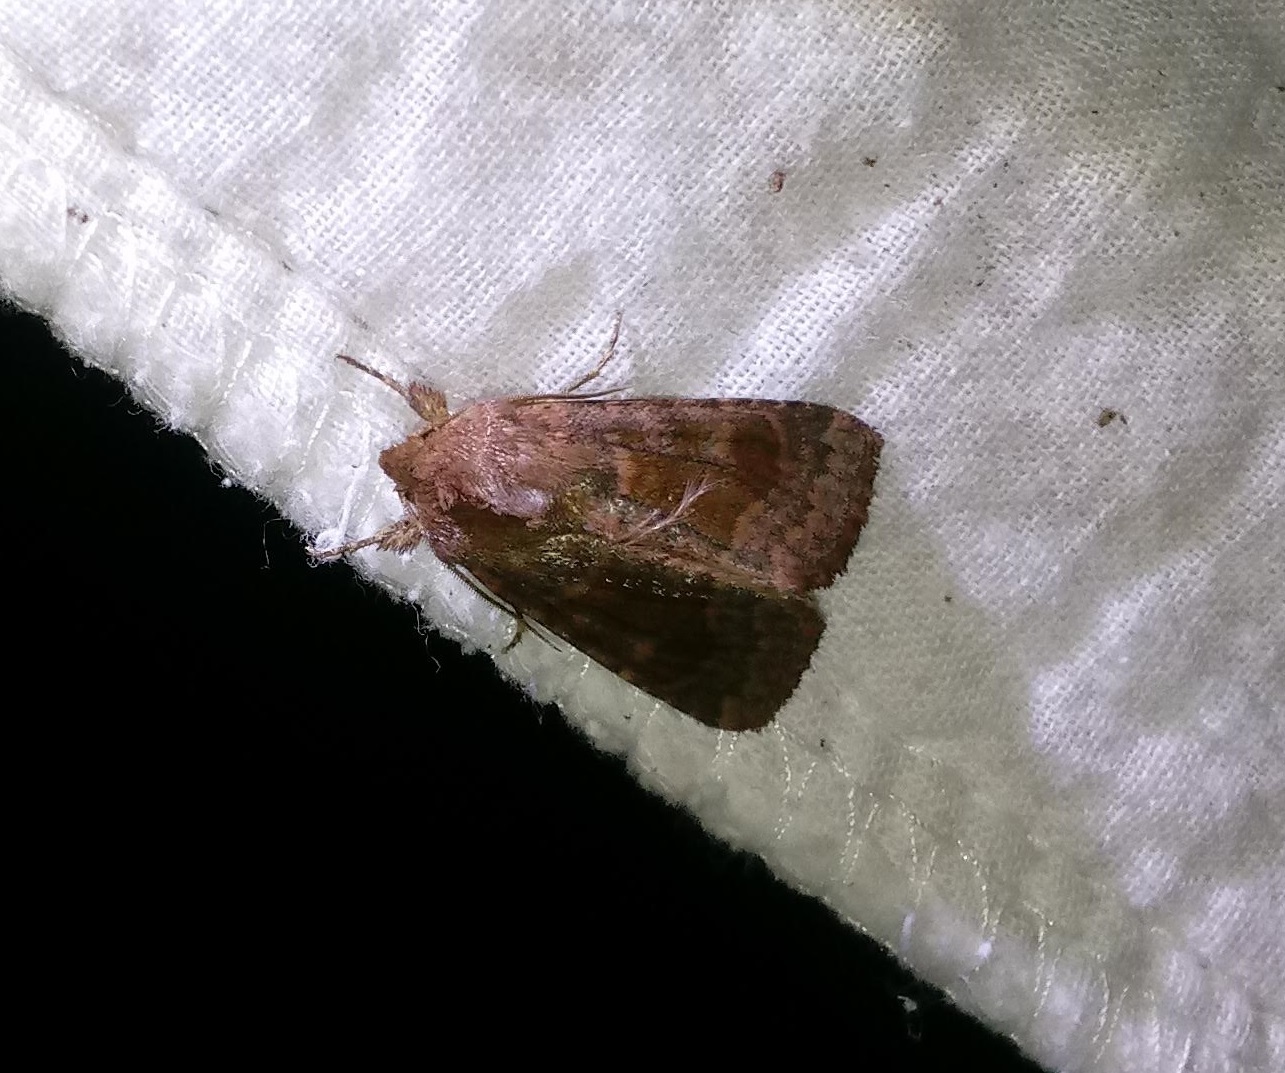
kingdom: Animalia
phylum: Arthropoda
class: Insecta
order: Lepidoptera
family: Noctuidae
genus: Nephelodes
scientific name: Nephelodes minians
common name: Bronzed cutworm
